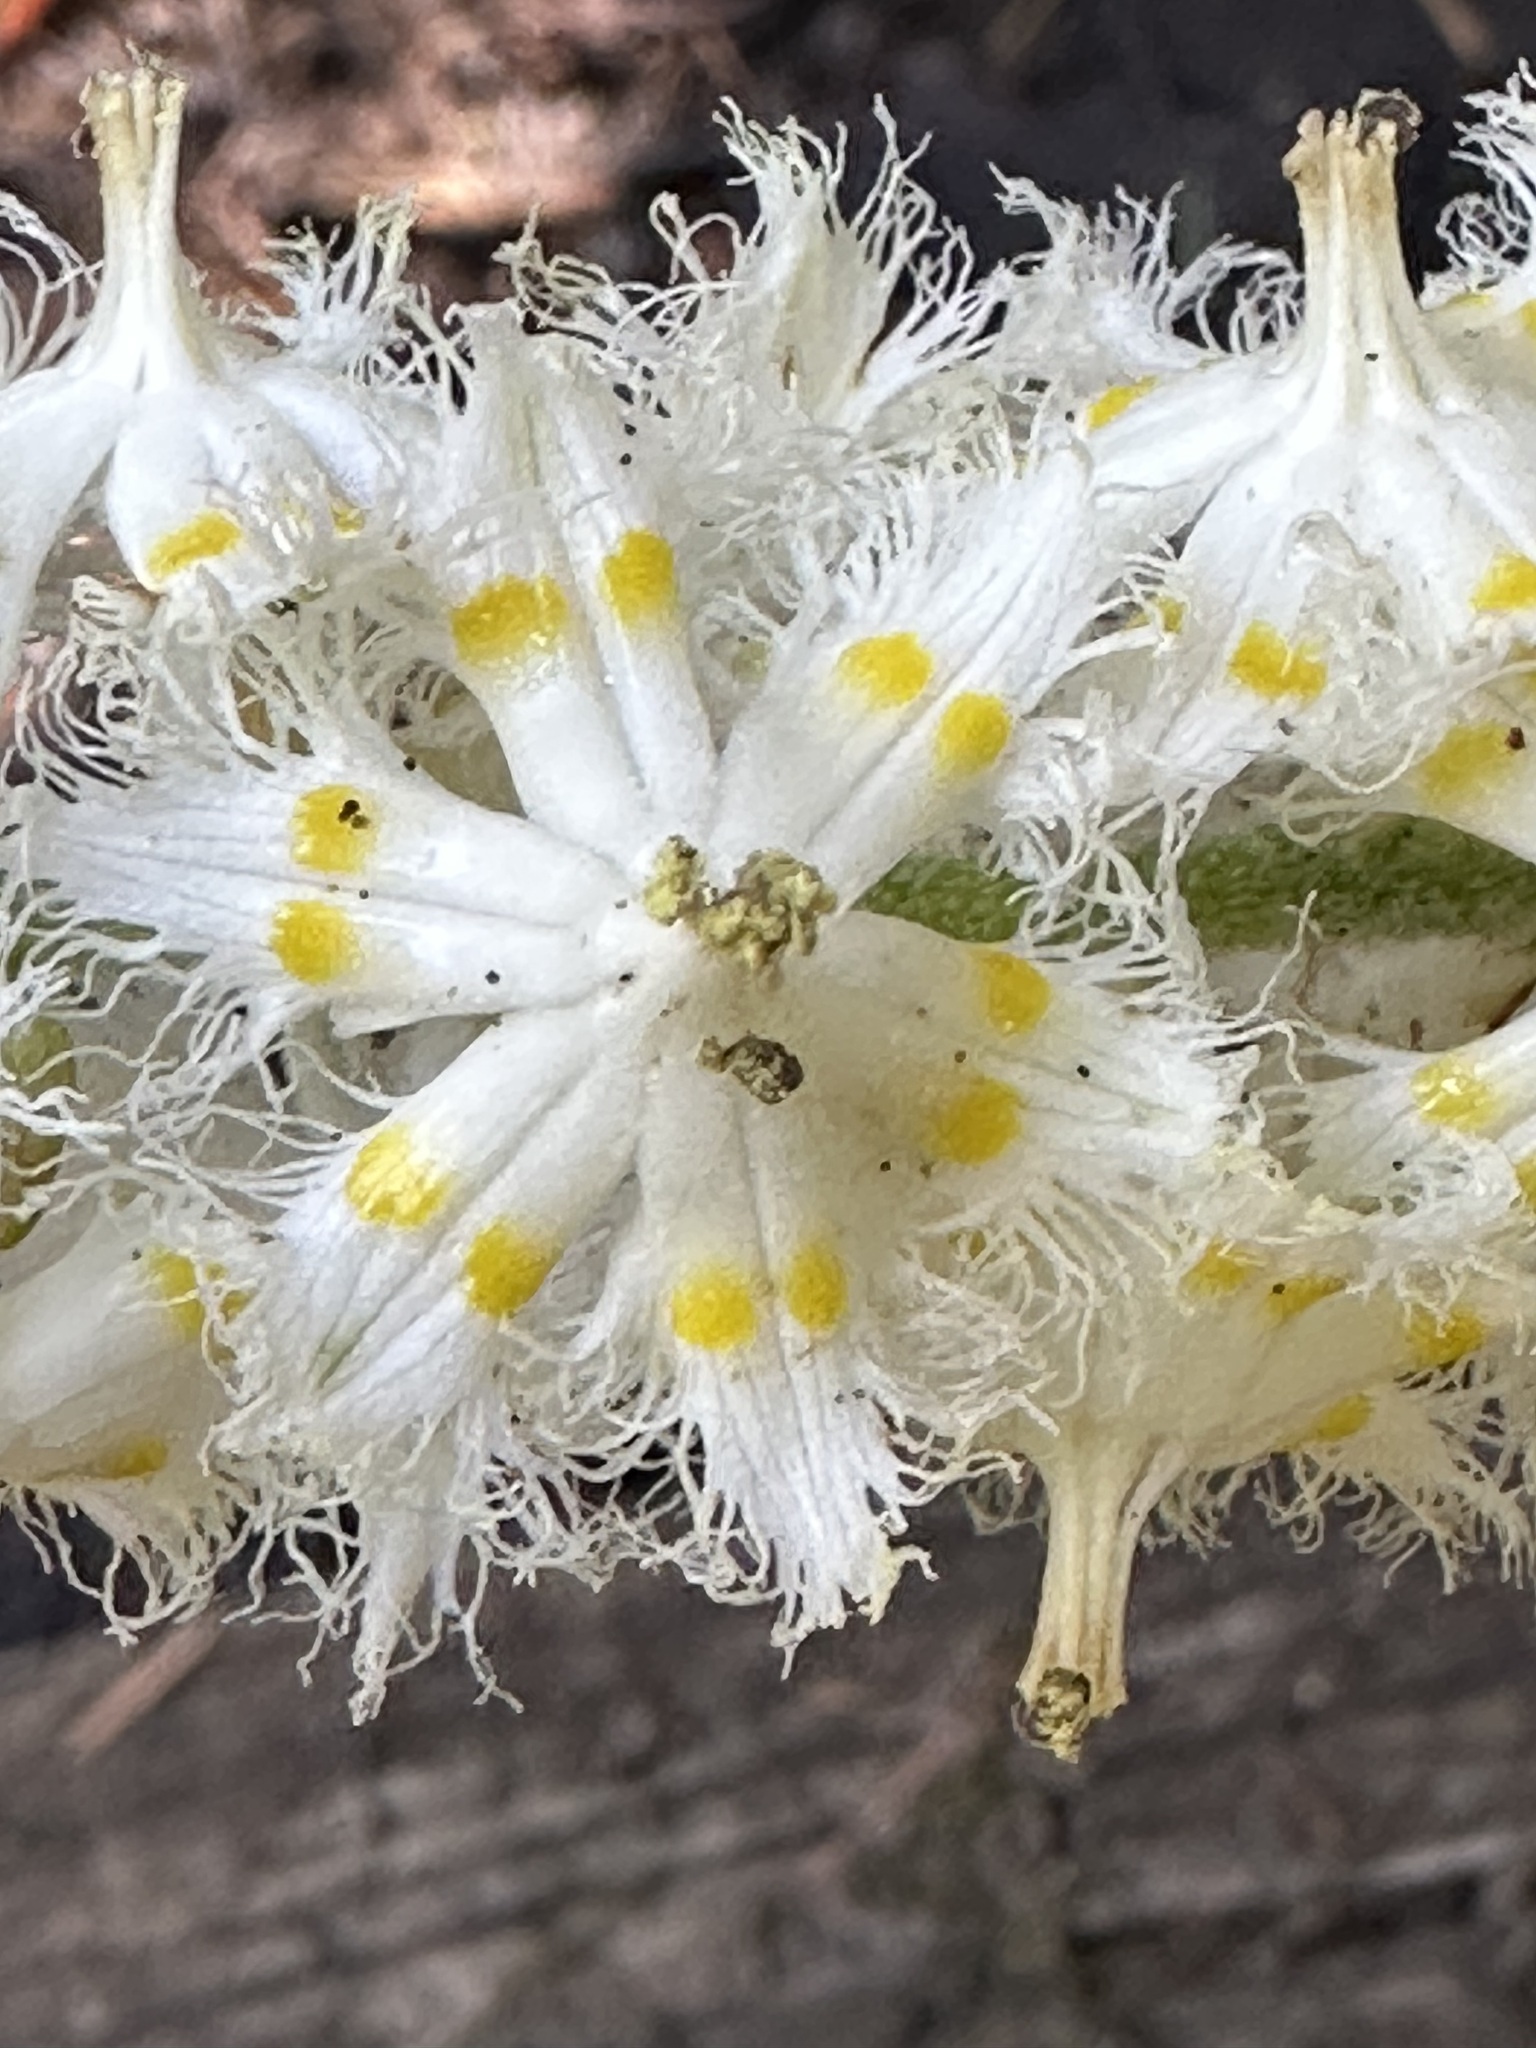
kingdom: Plantae
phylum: Tracheophyta
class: Liliopsida
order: Liliales
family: Melanthiaceae
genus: Veratrum
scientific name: Veratrum fimbriatum
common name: Fringe false hellobore
